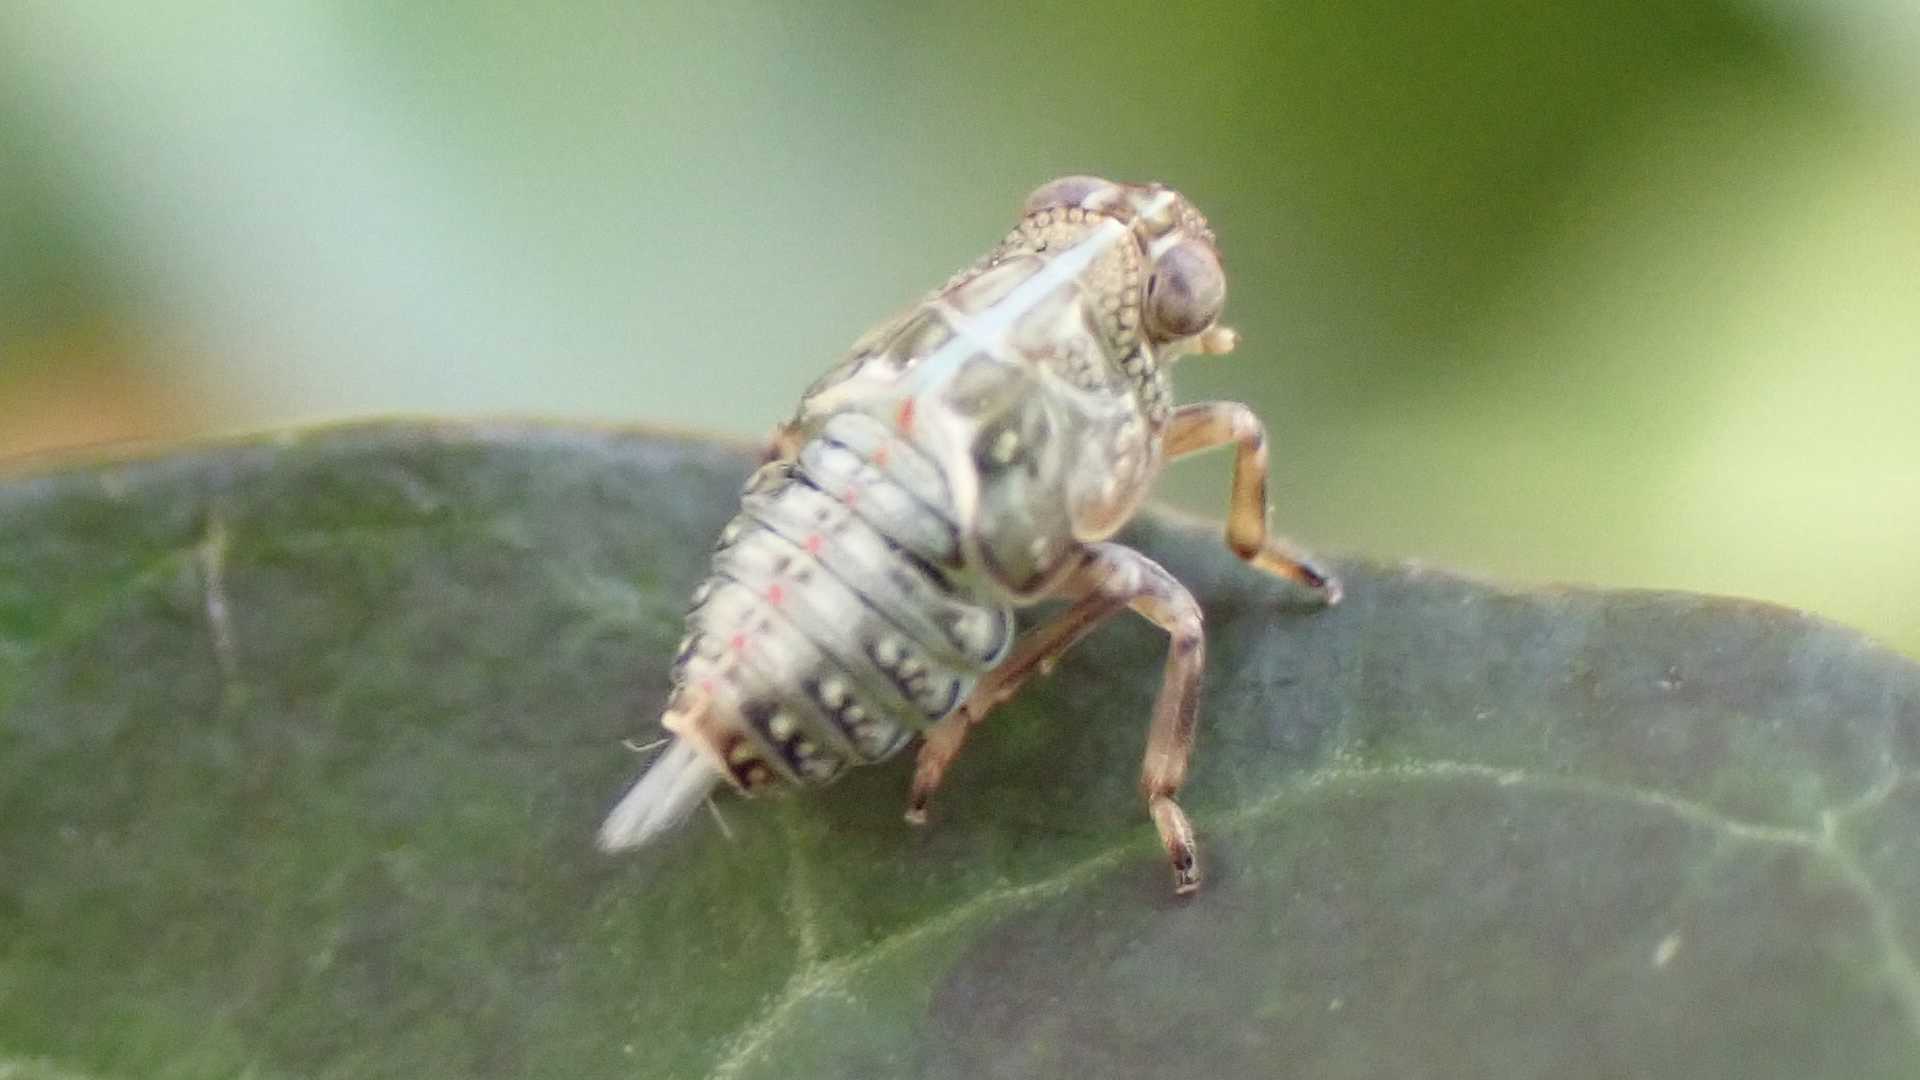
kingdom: Animalia
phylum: Arthropoda
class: Insecta
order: Hemiptera
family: Issidae
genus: Issus
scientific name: Issus coleoptratus
